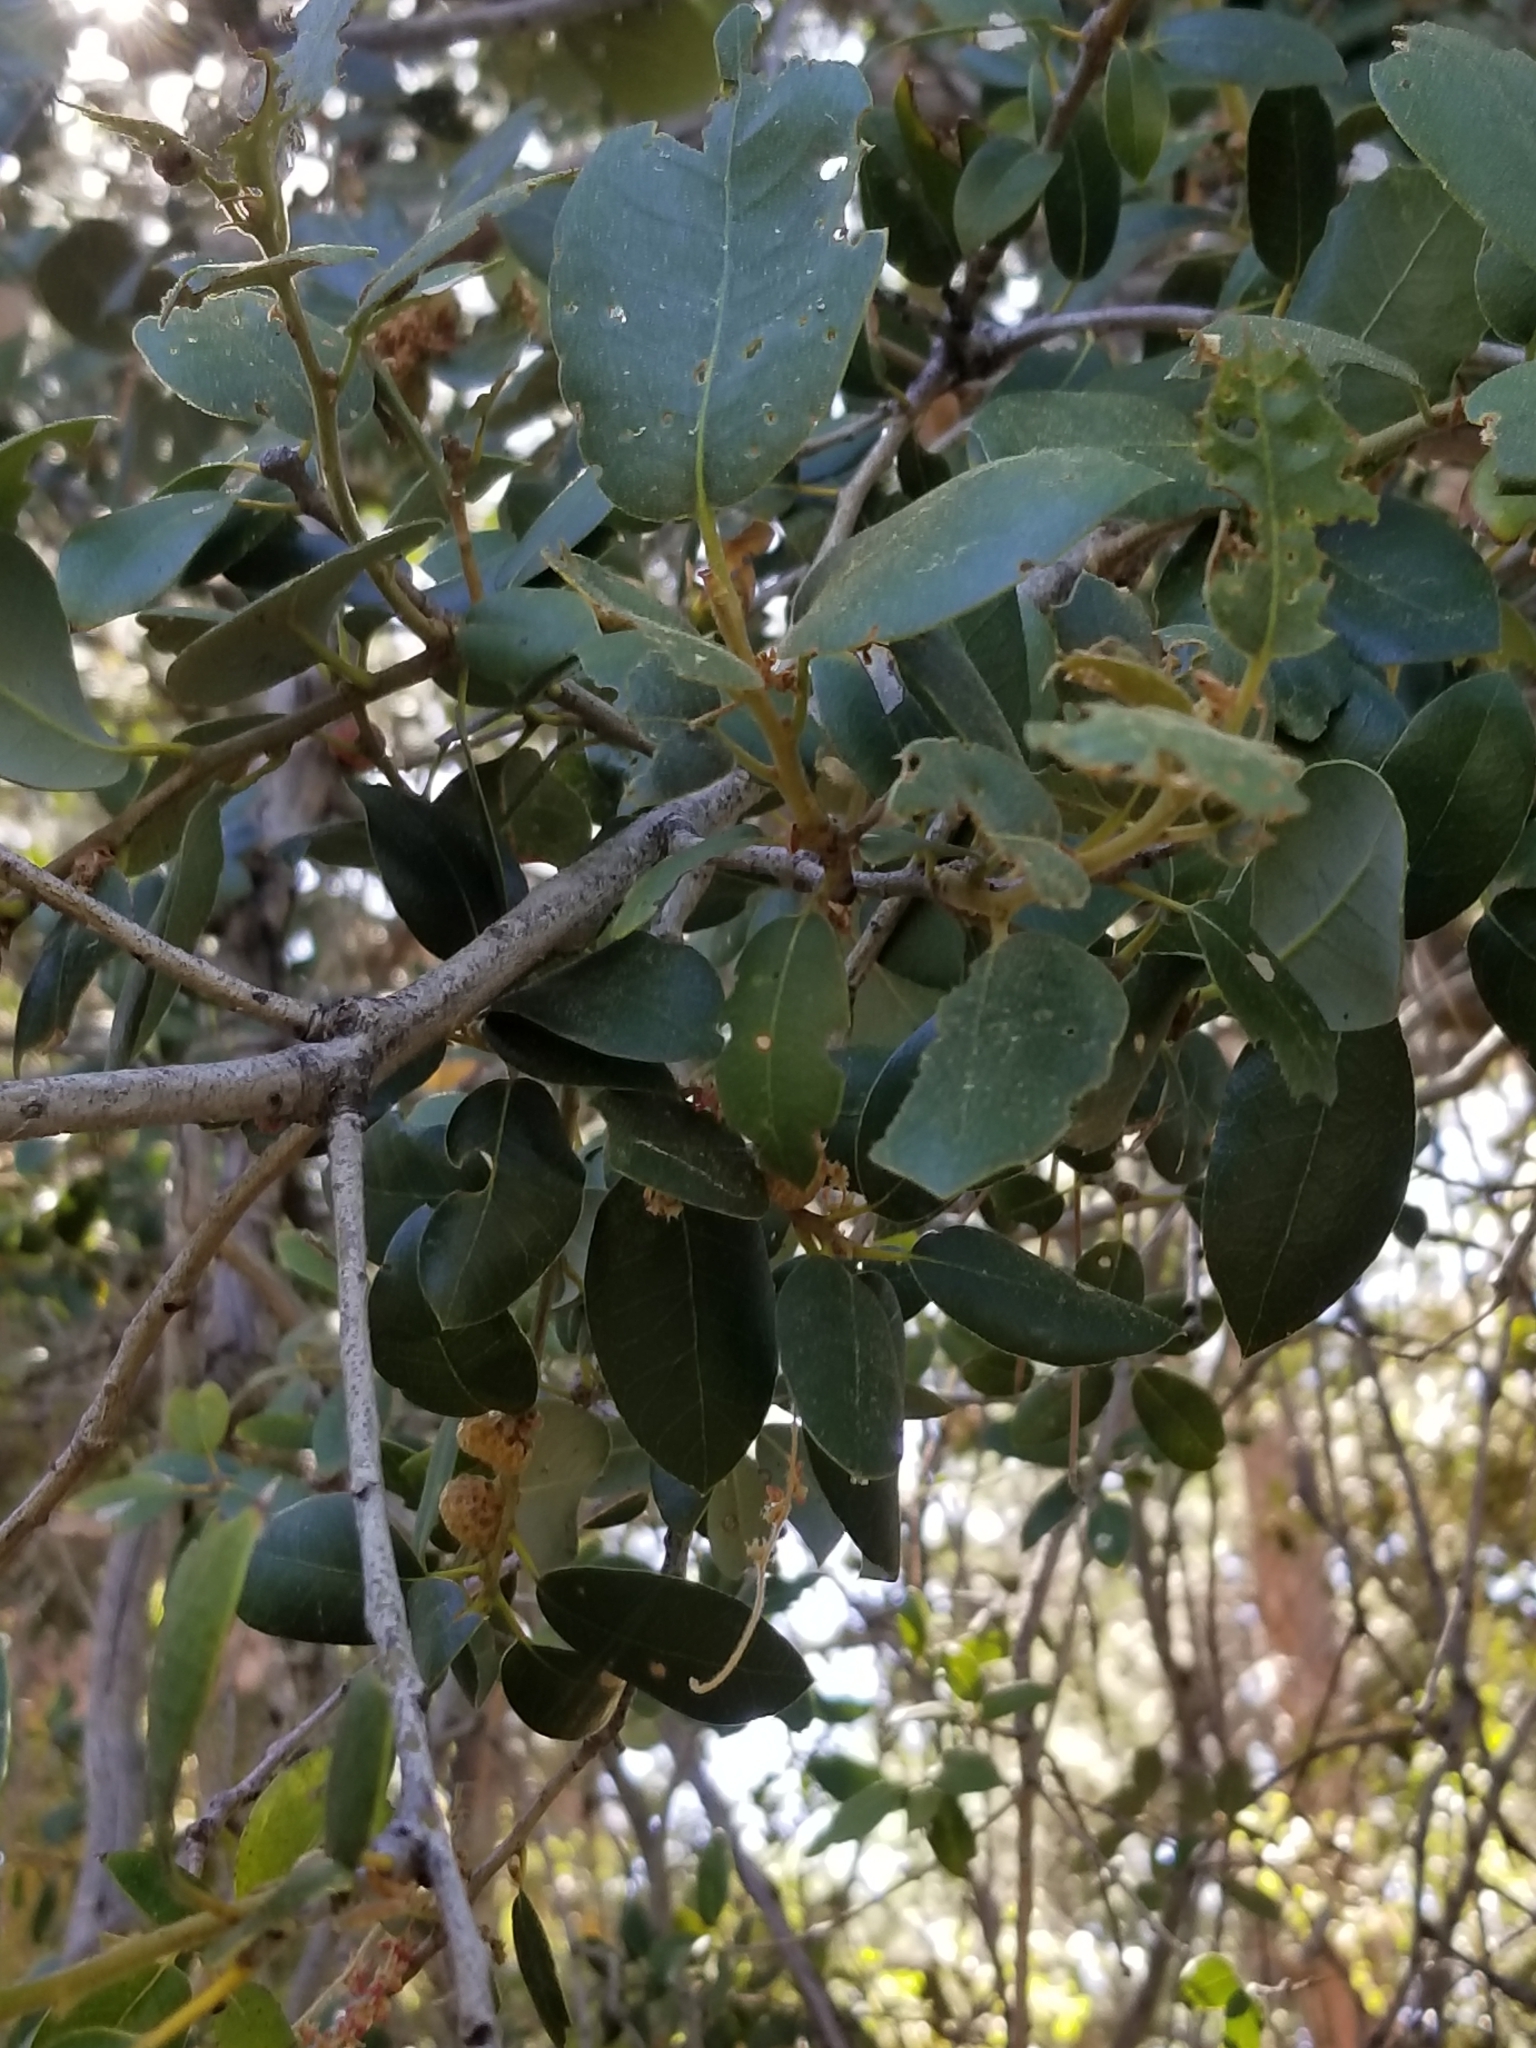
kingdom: Plantae
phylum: Tracheophyta
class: Magnoliopsida
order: Fagales
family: Fagaceae
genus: Quercus
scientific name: Quercus chrysolepis
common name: Canyon live oak
